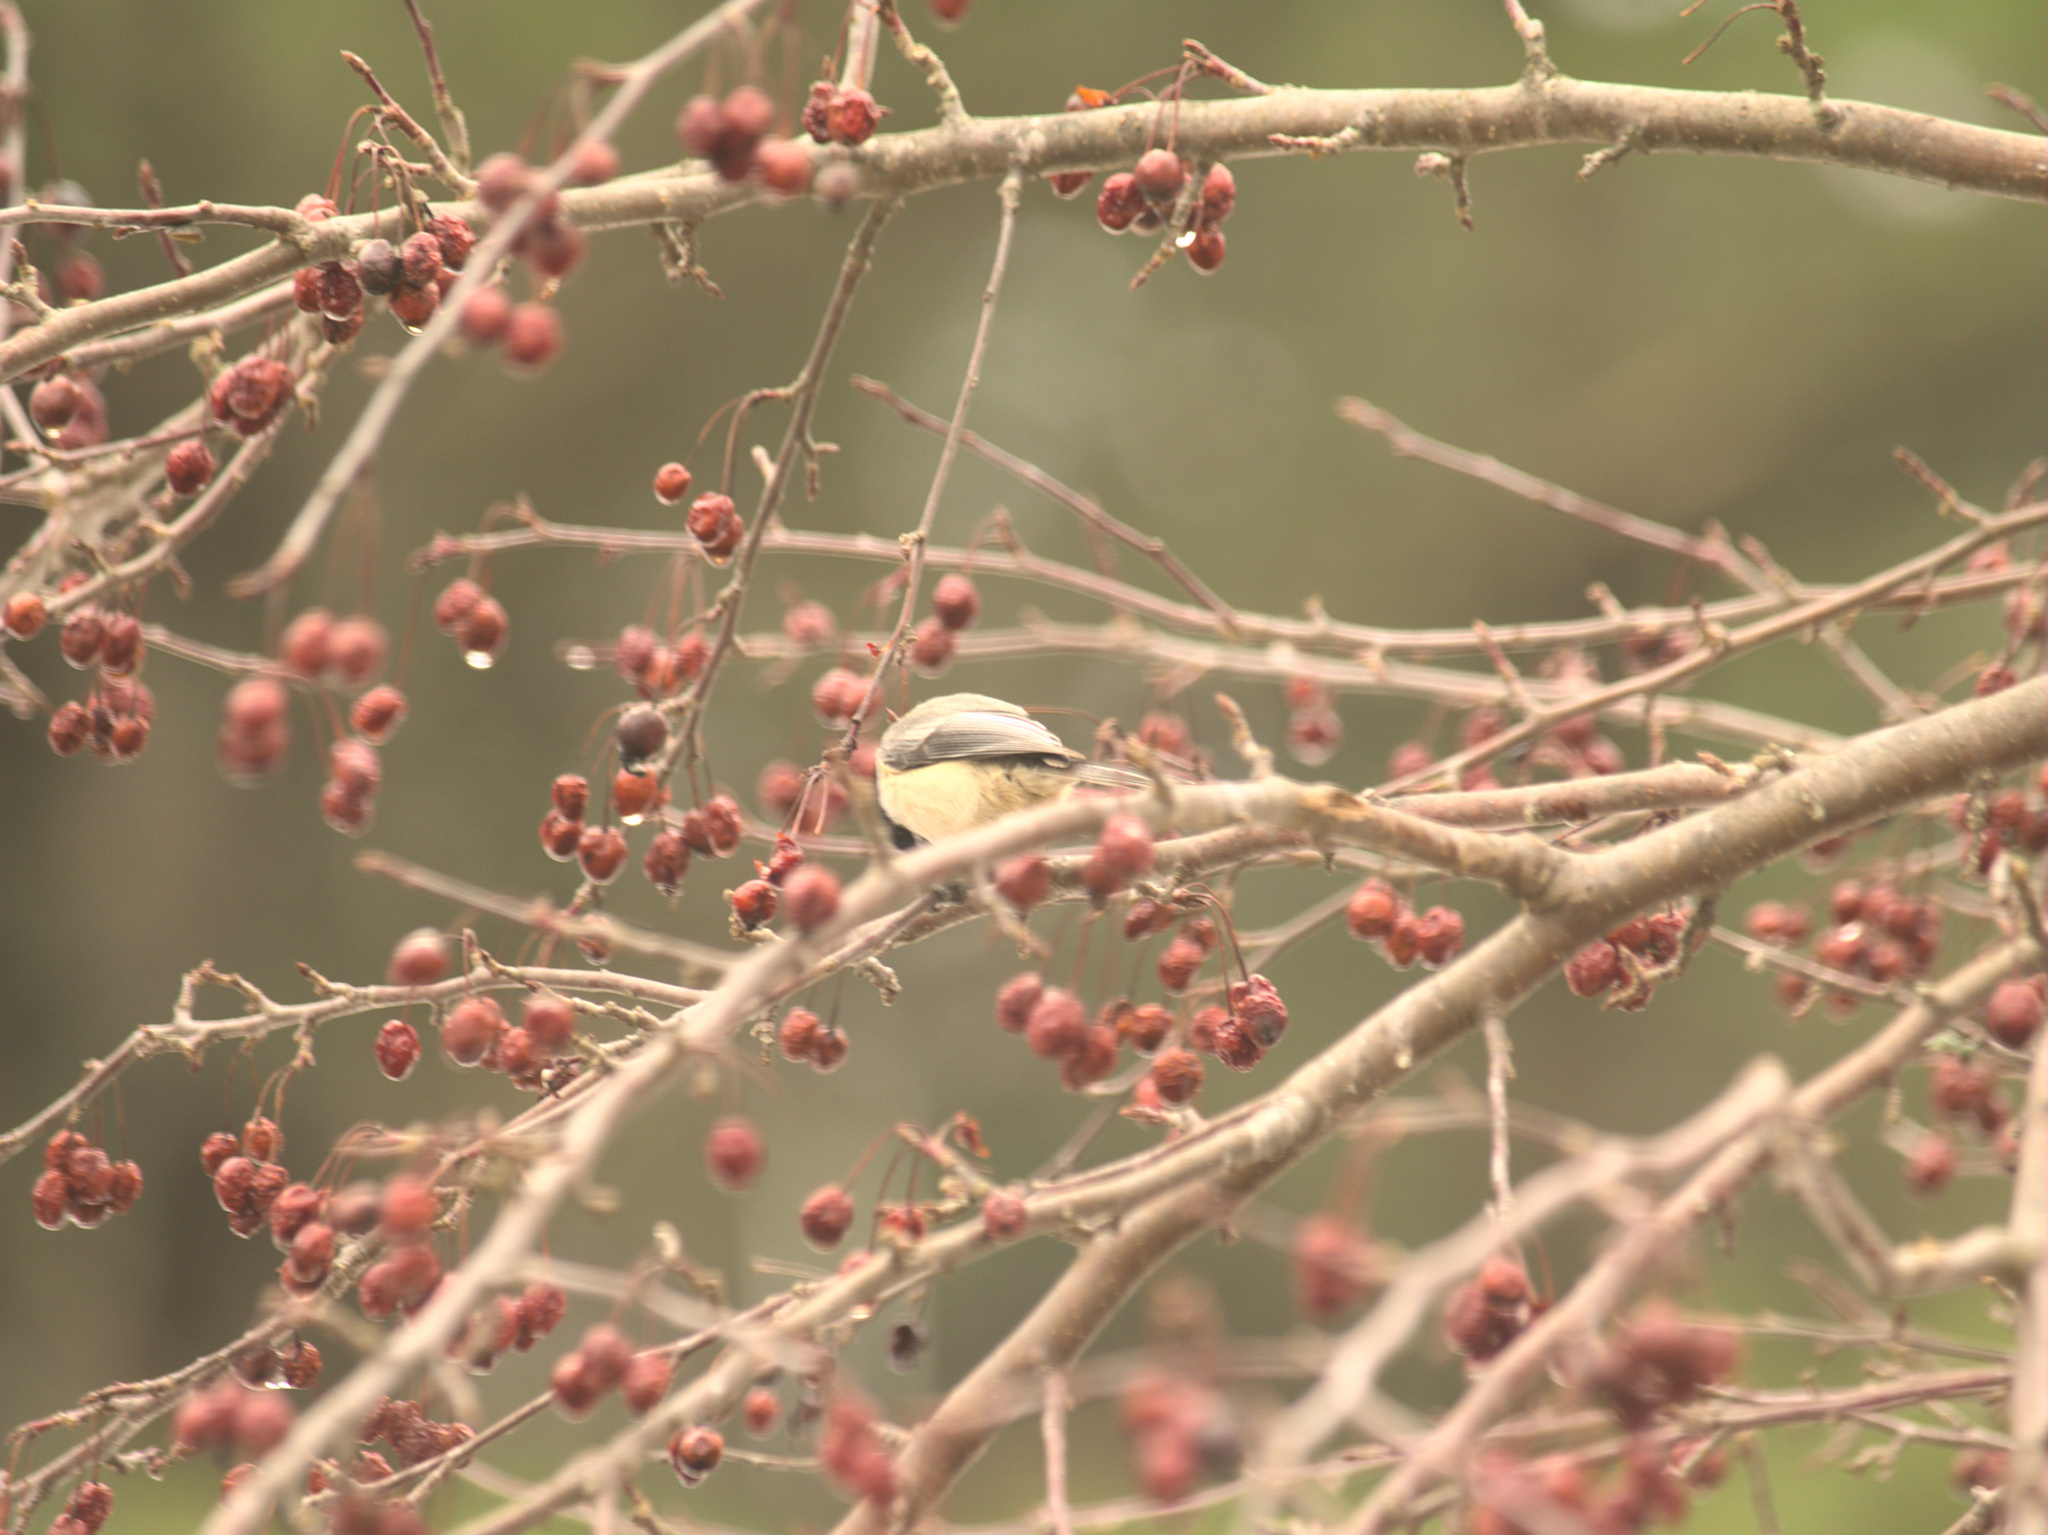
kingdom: Animalia
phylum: Chordata
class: Aves
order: Passeriformes
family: Paridae
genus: Poecile
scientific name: Poecile atricapillus
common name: Black-capped chickadee
